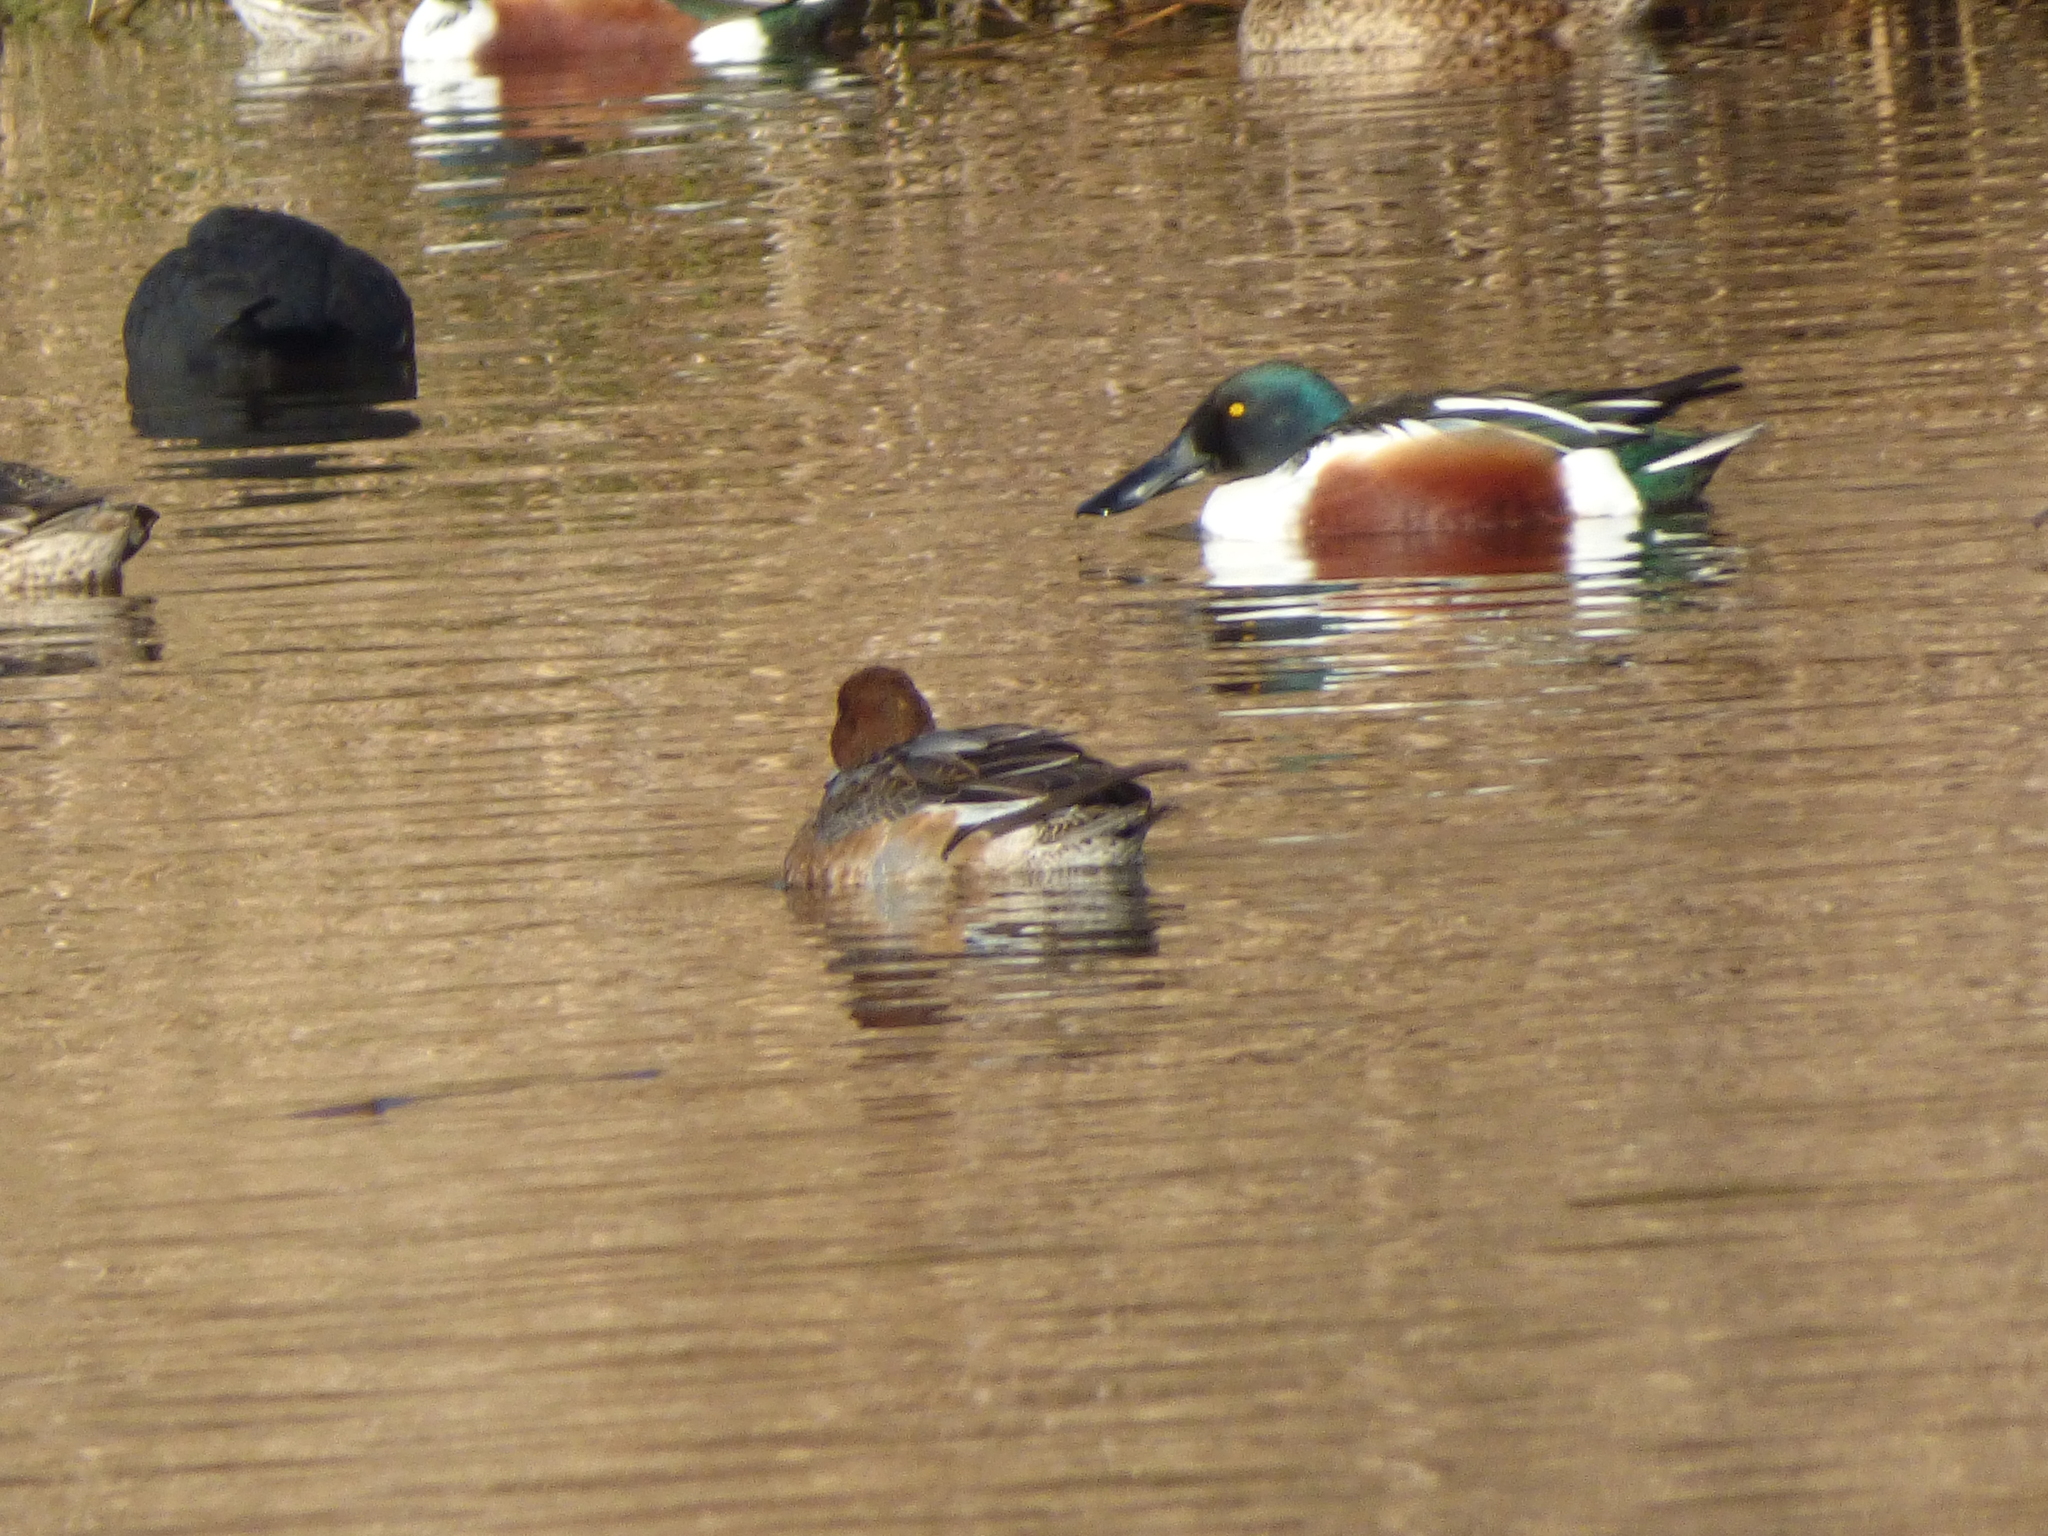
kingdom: Animalia
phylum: Chordata
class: Aves
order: Anseriformes
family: Anatidae
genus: Spatula
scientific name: Spatula clypeata
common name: Northern shoveler
